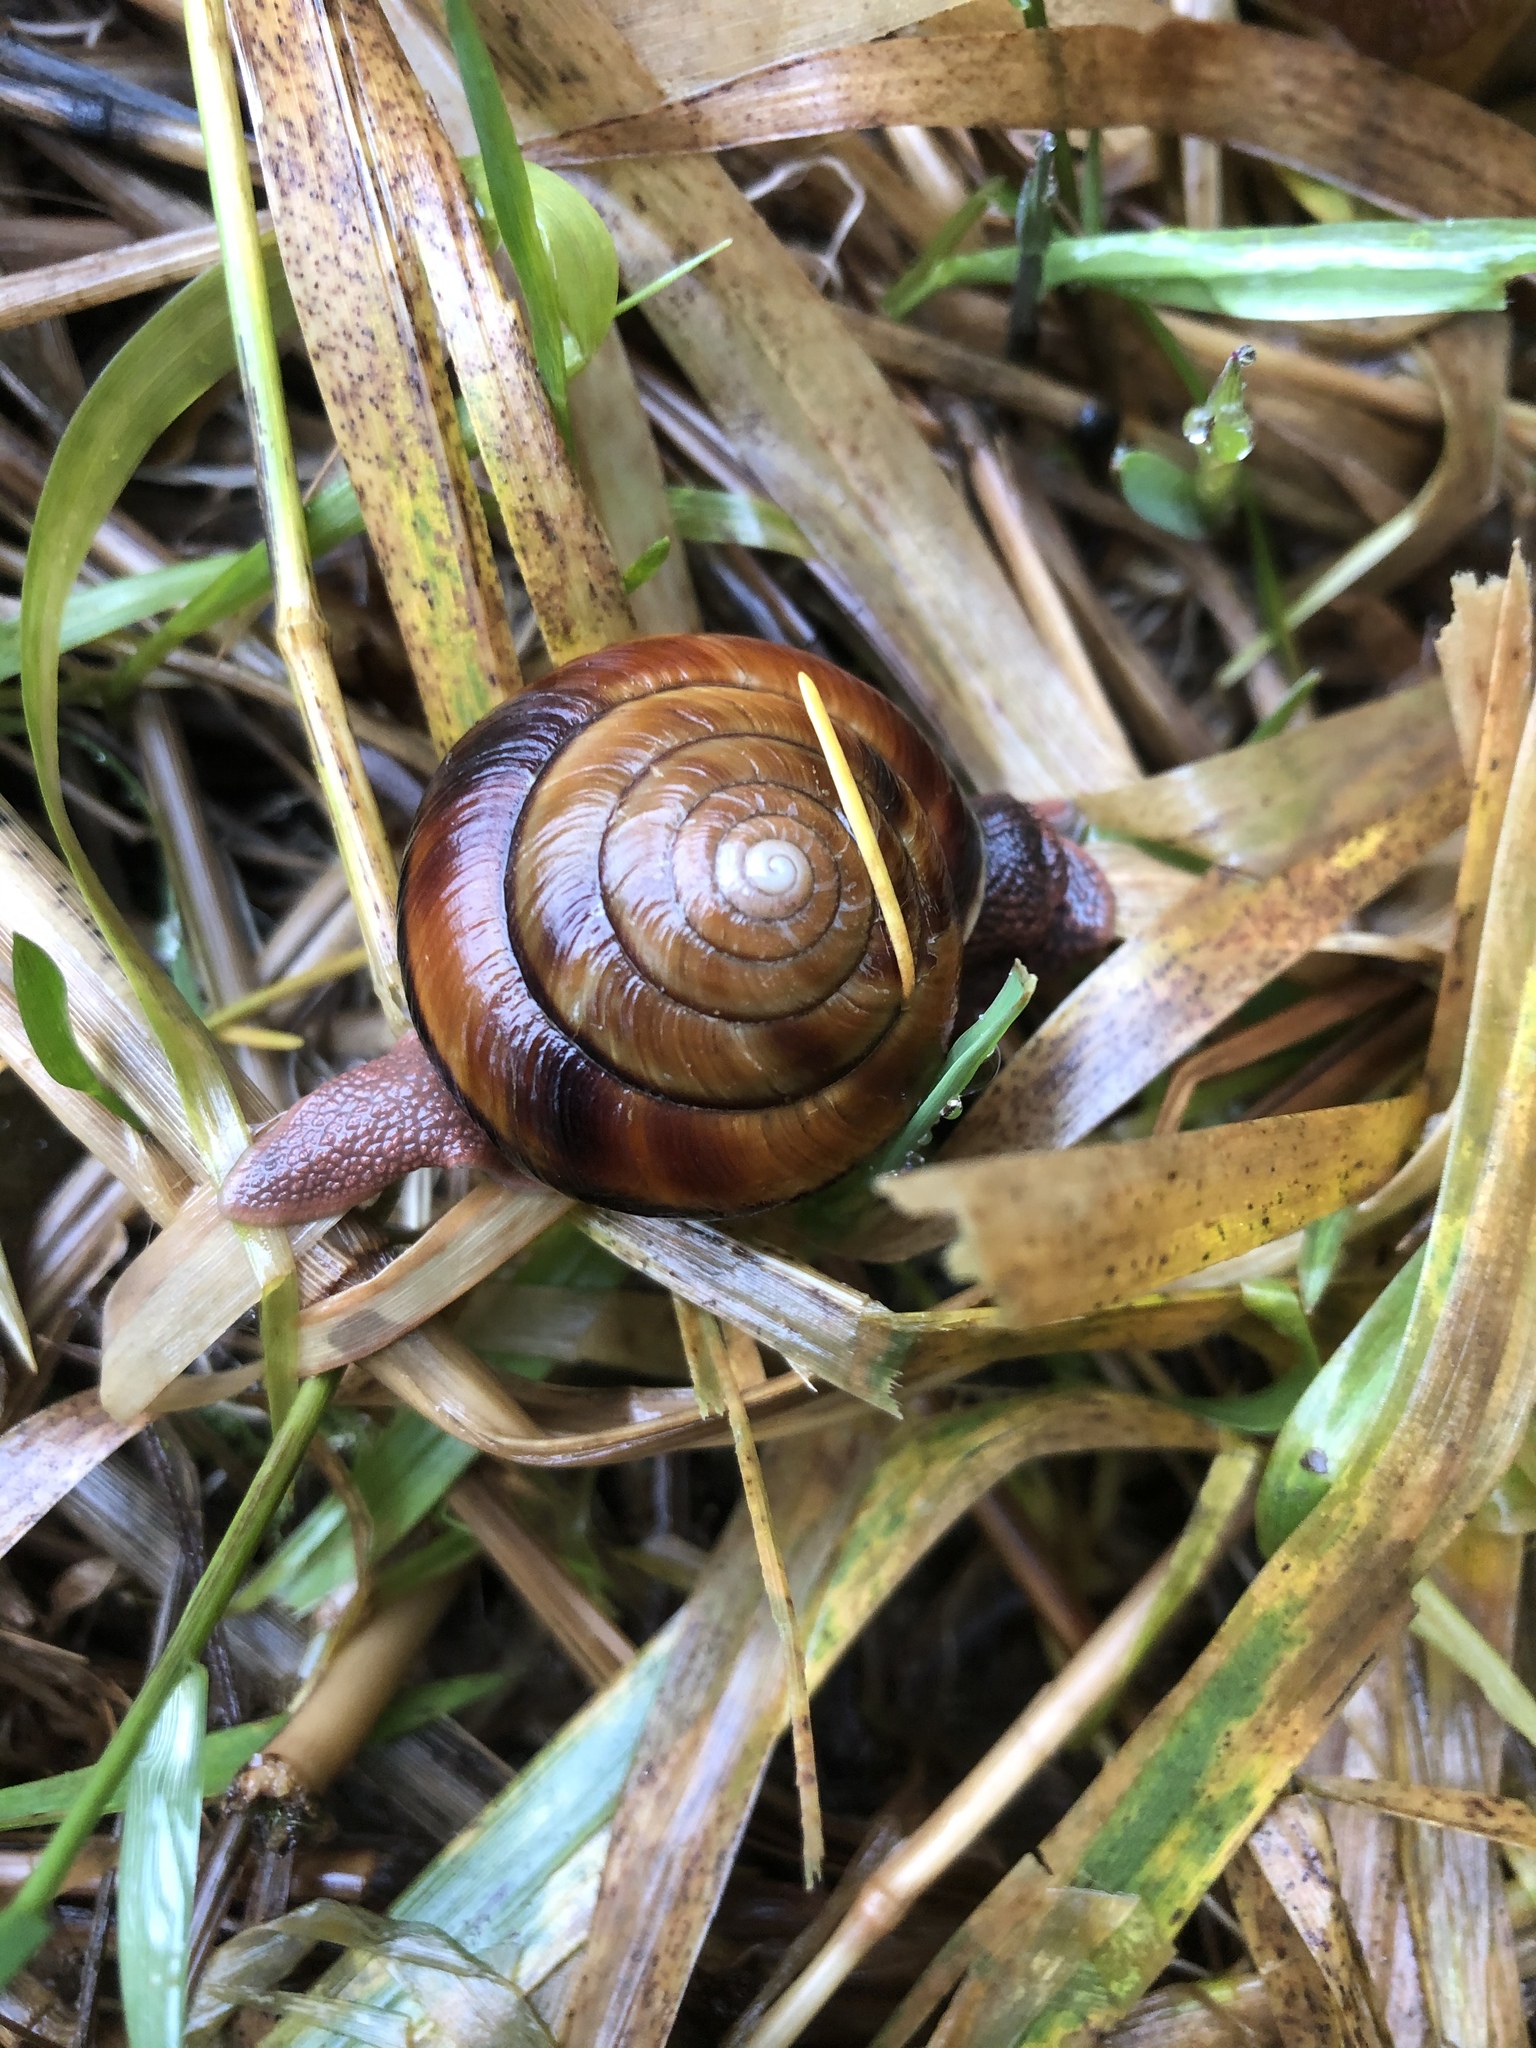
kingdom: Animalia
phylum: Mollusca
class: Gastropoda
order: Stylommatophora
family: Xanthonychidae
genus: Monadenia
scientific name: Monadenia fidelis
